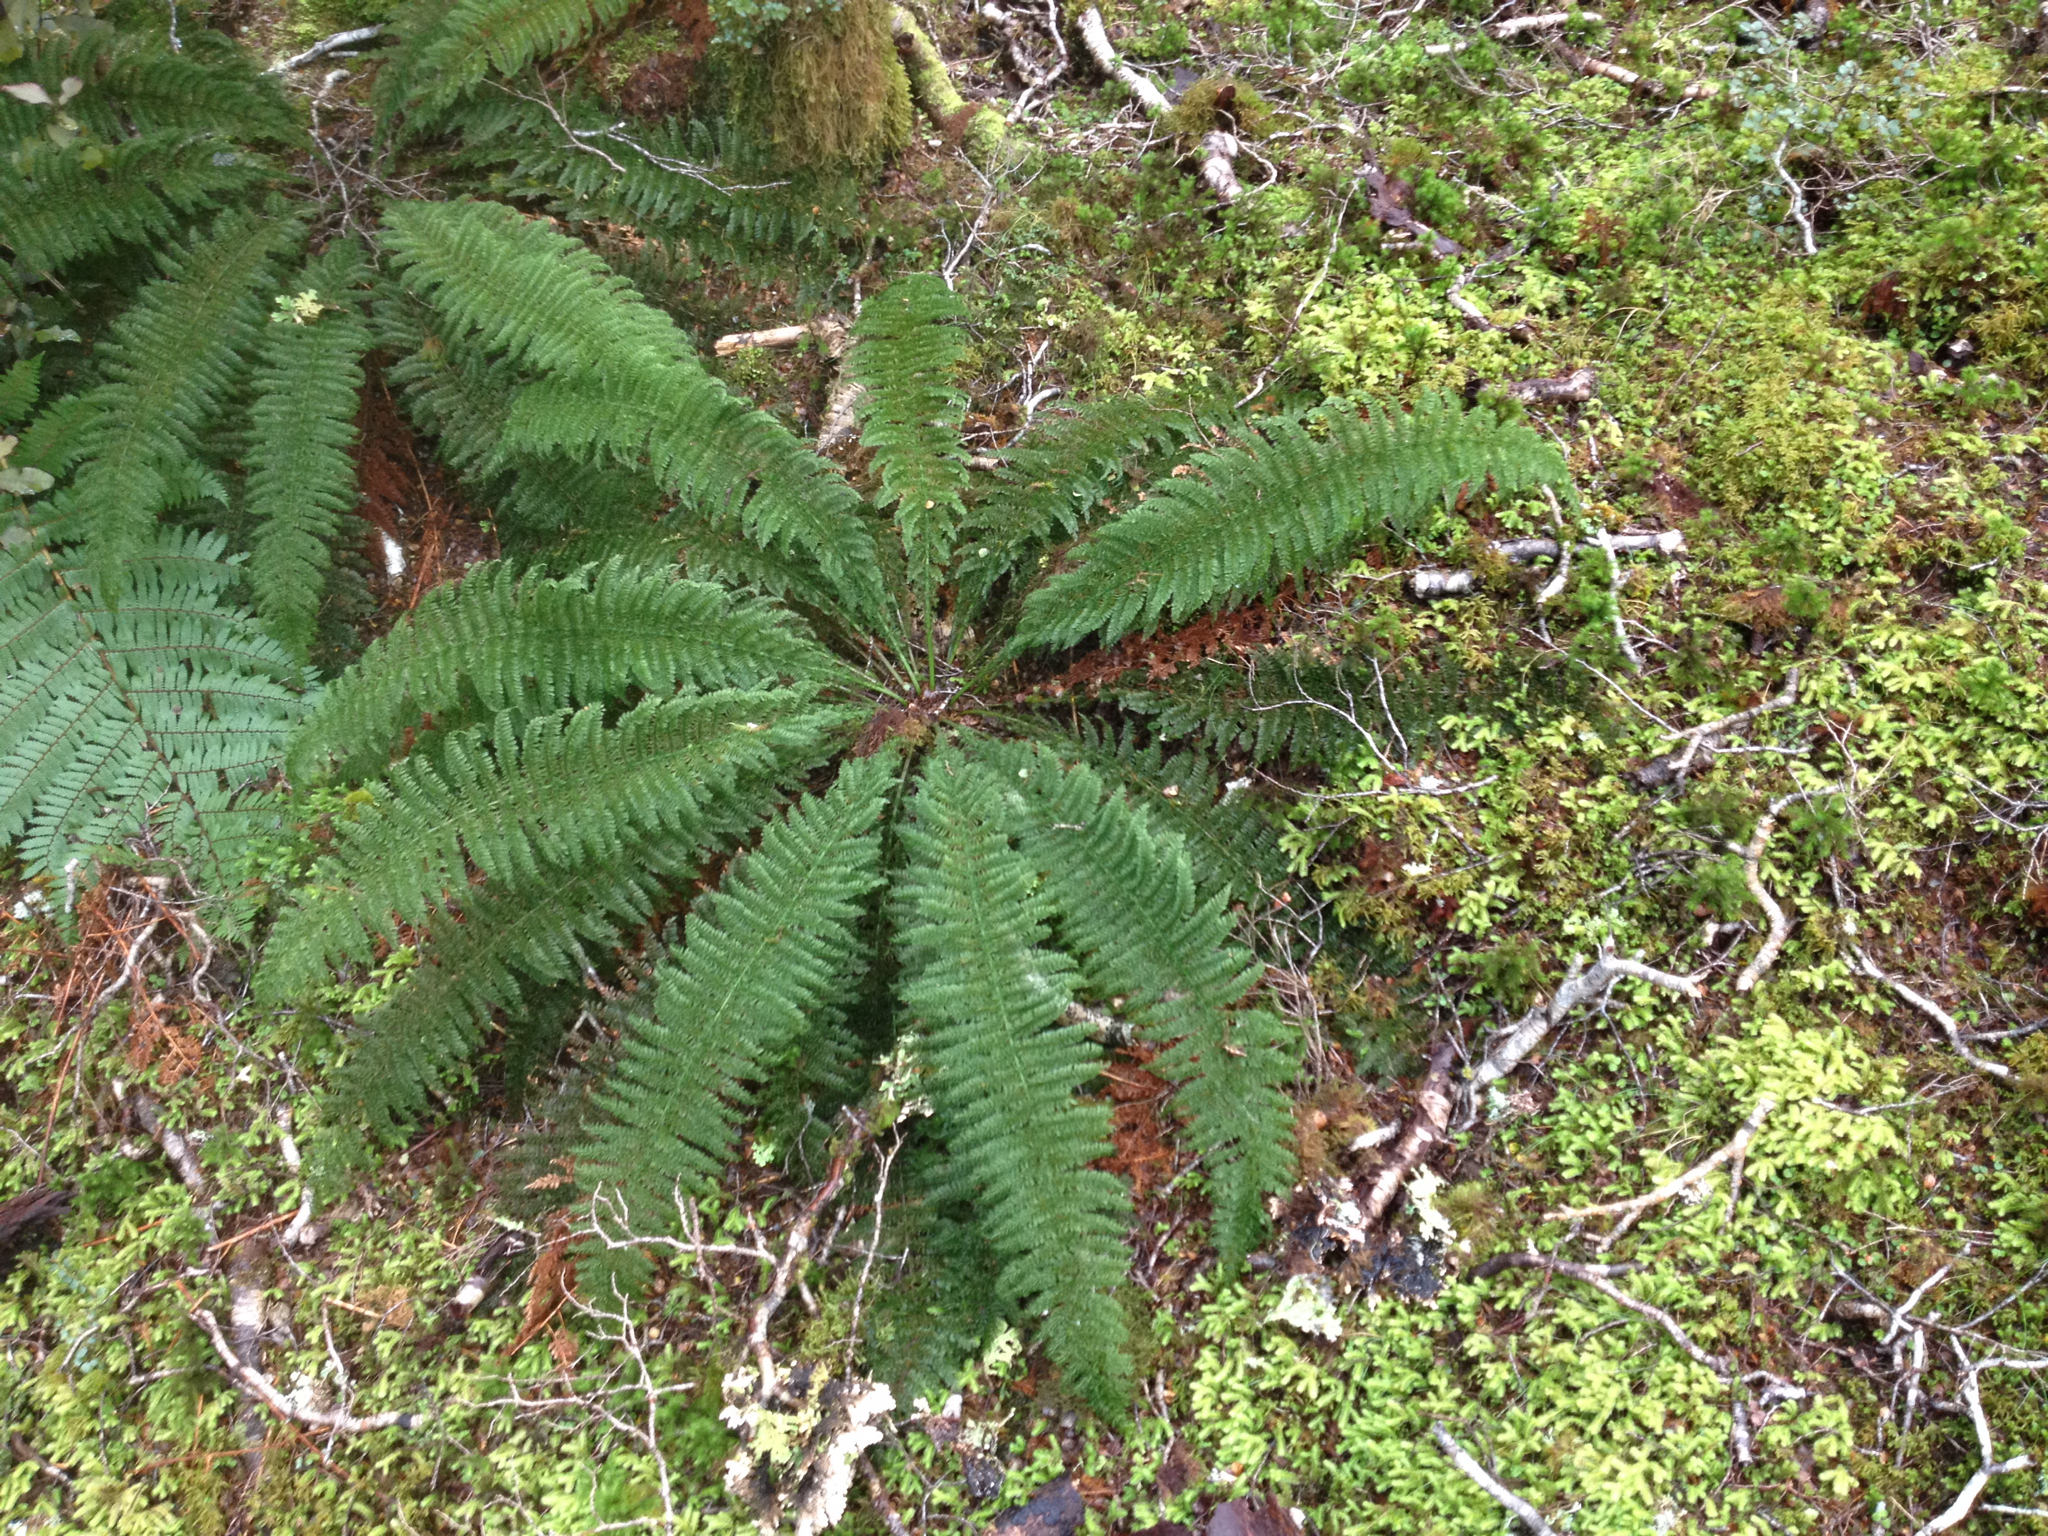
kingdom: Plantae
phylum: Tracheophyta
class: Polypodiopsida
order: Osmundales
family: Osmundaceae
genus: Leptopteris
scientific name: Leptopteris superba
